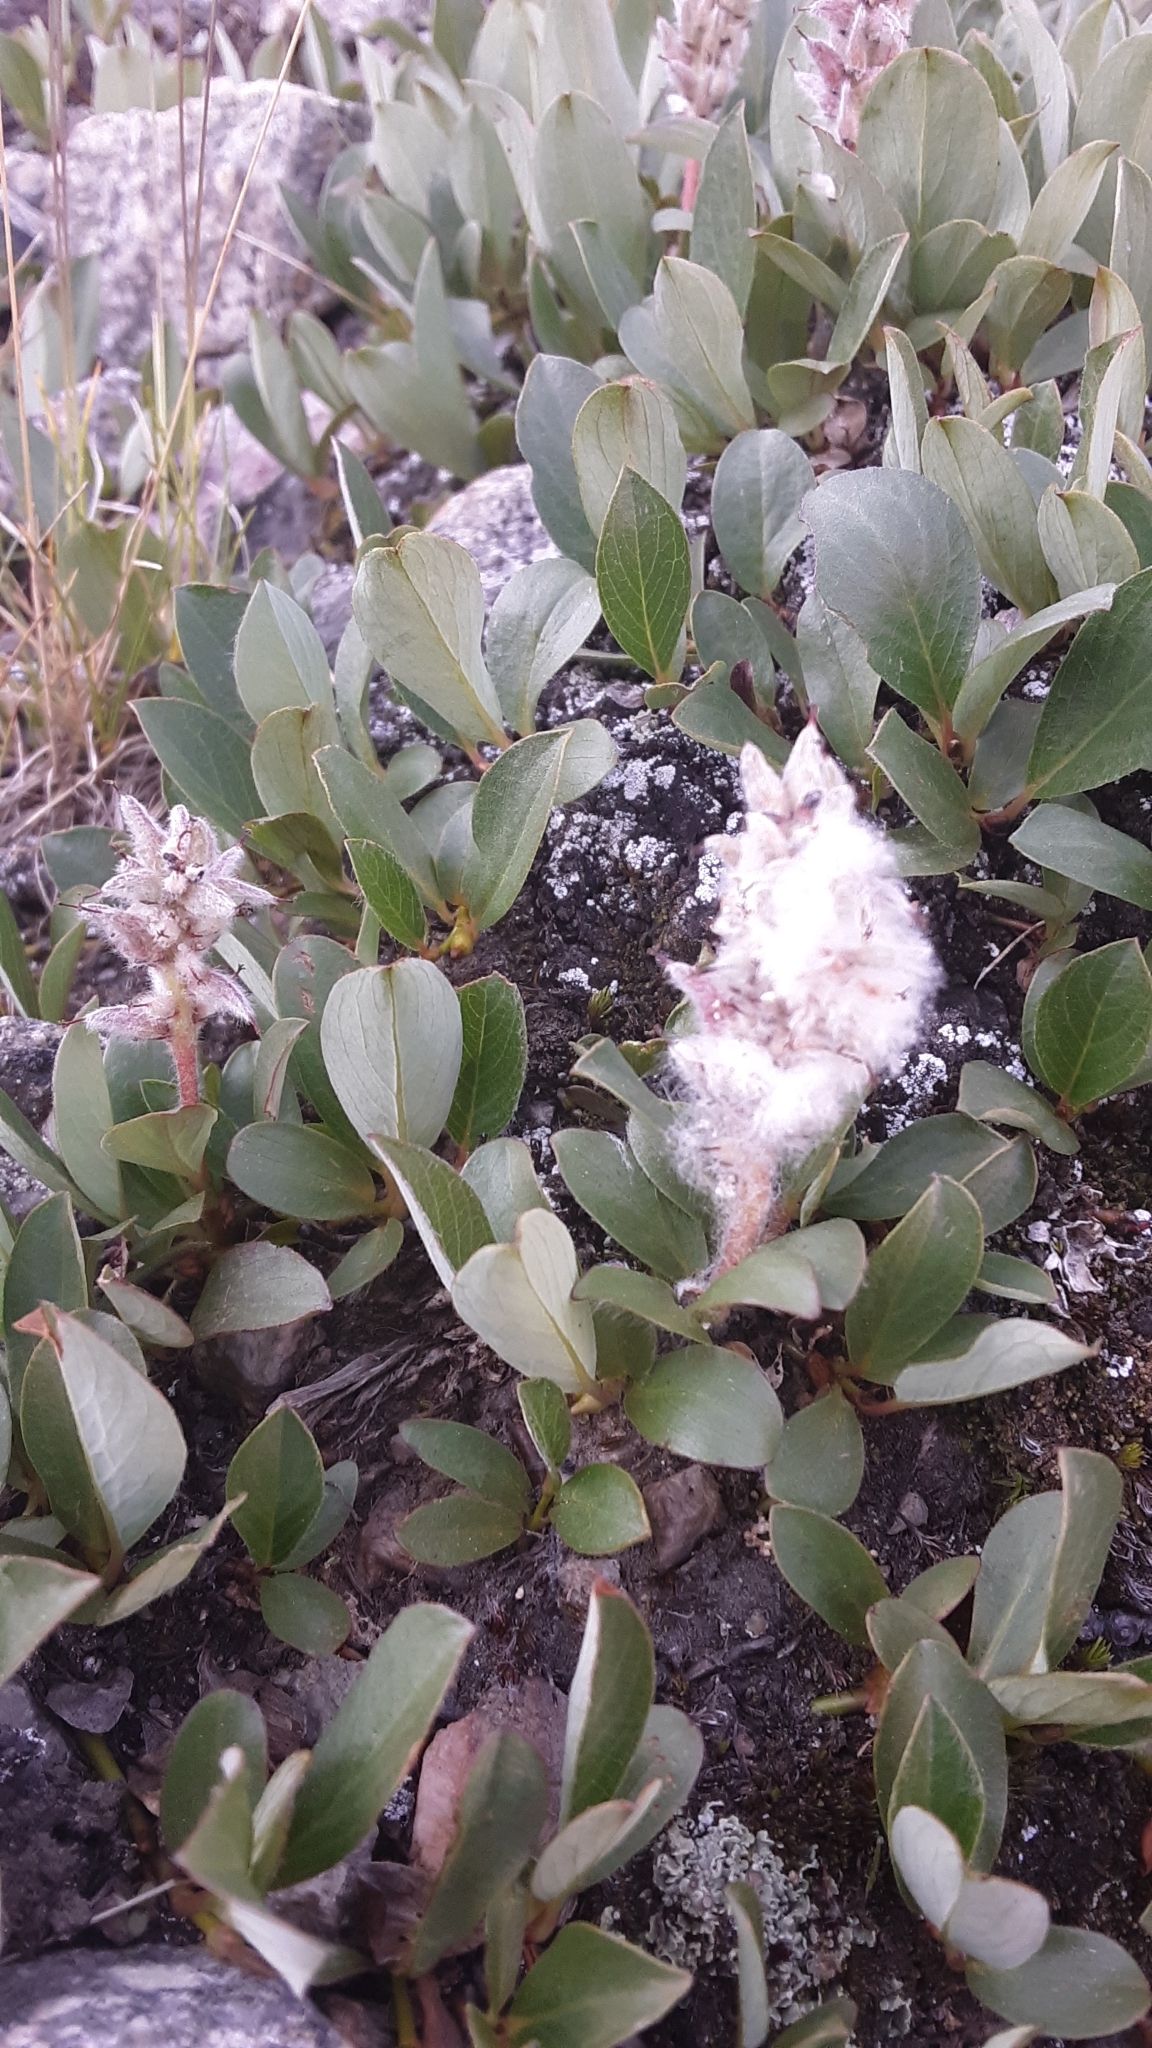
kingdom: Plantae
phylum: Tracheophyta
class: Magnoliopsida
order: Malpighiales
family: Salicaceae
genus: Salix
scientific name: Salix petrophila
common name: Rocky mountain willow
